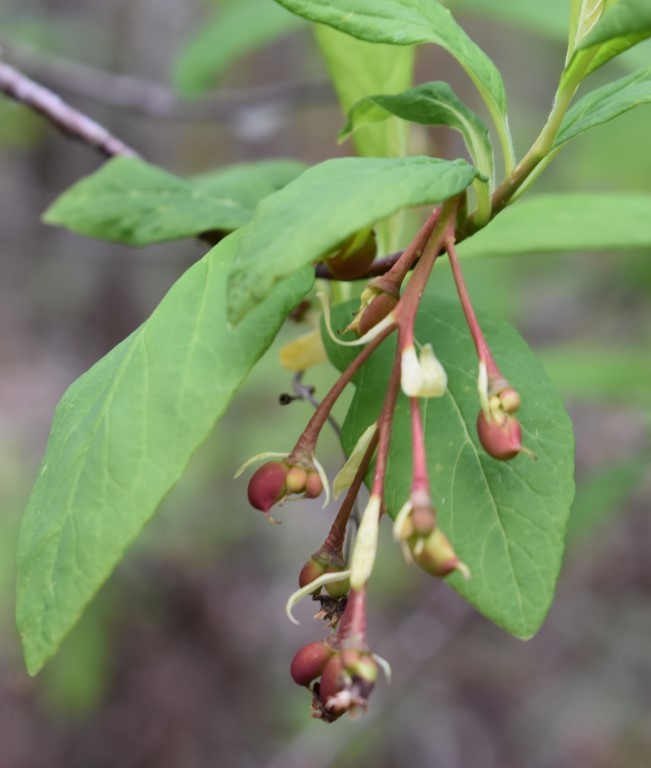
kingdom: Plantae
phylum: Tracheophyta
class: Magnoliopsida
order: Rosales
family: Rosaceae
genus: Oemleria
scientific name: Oemleria cerasiformis
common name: Osoberry
